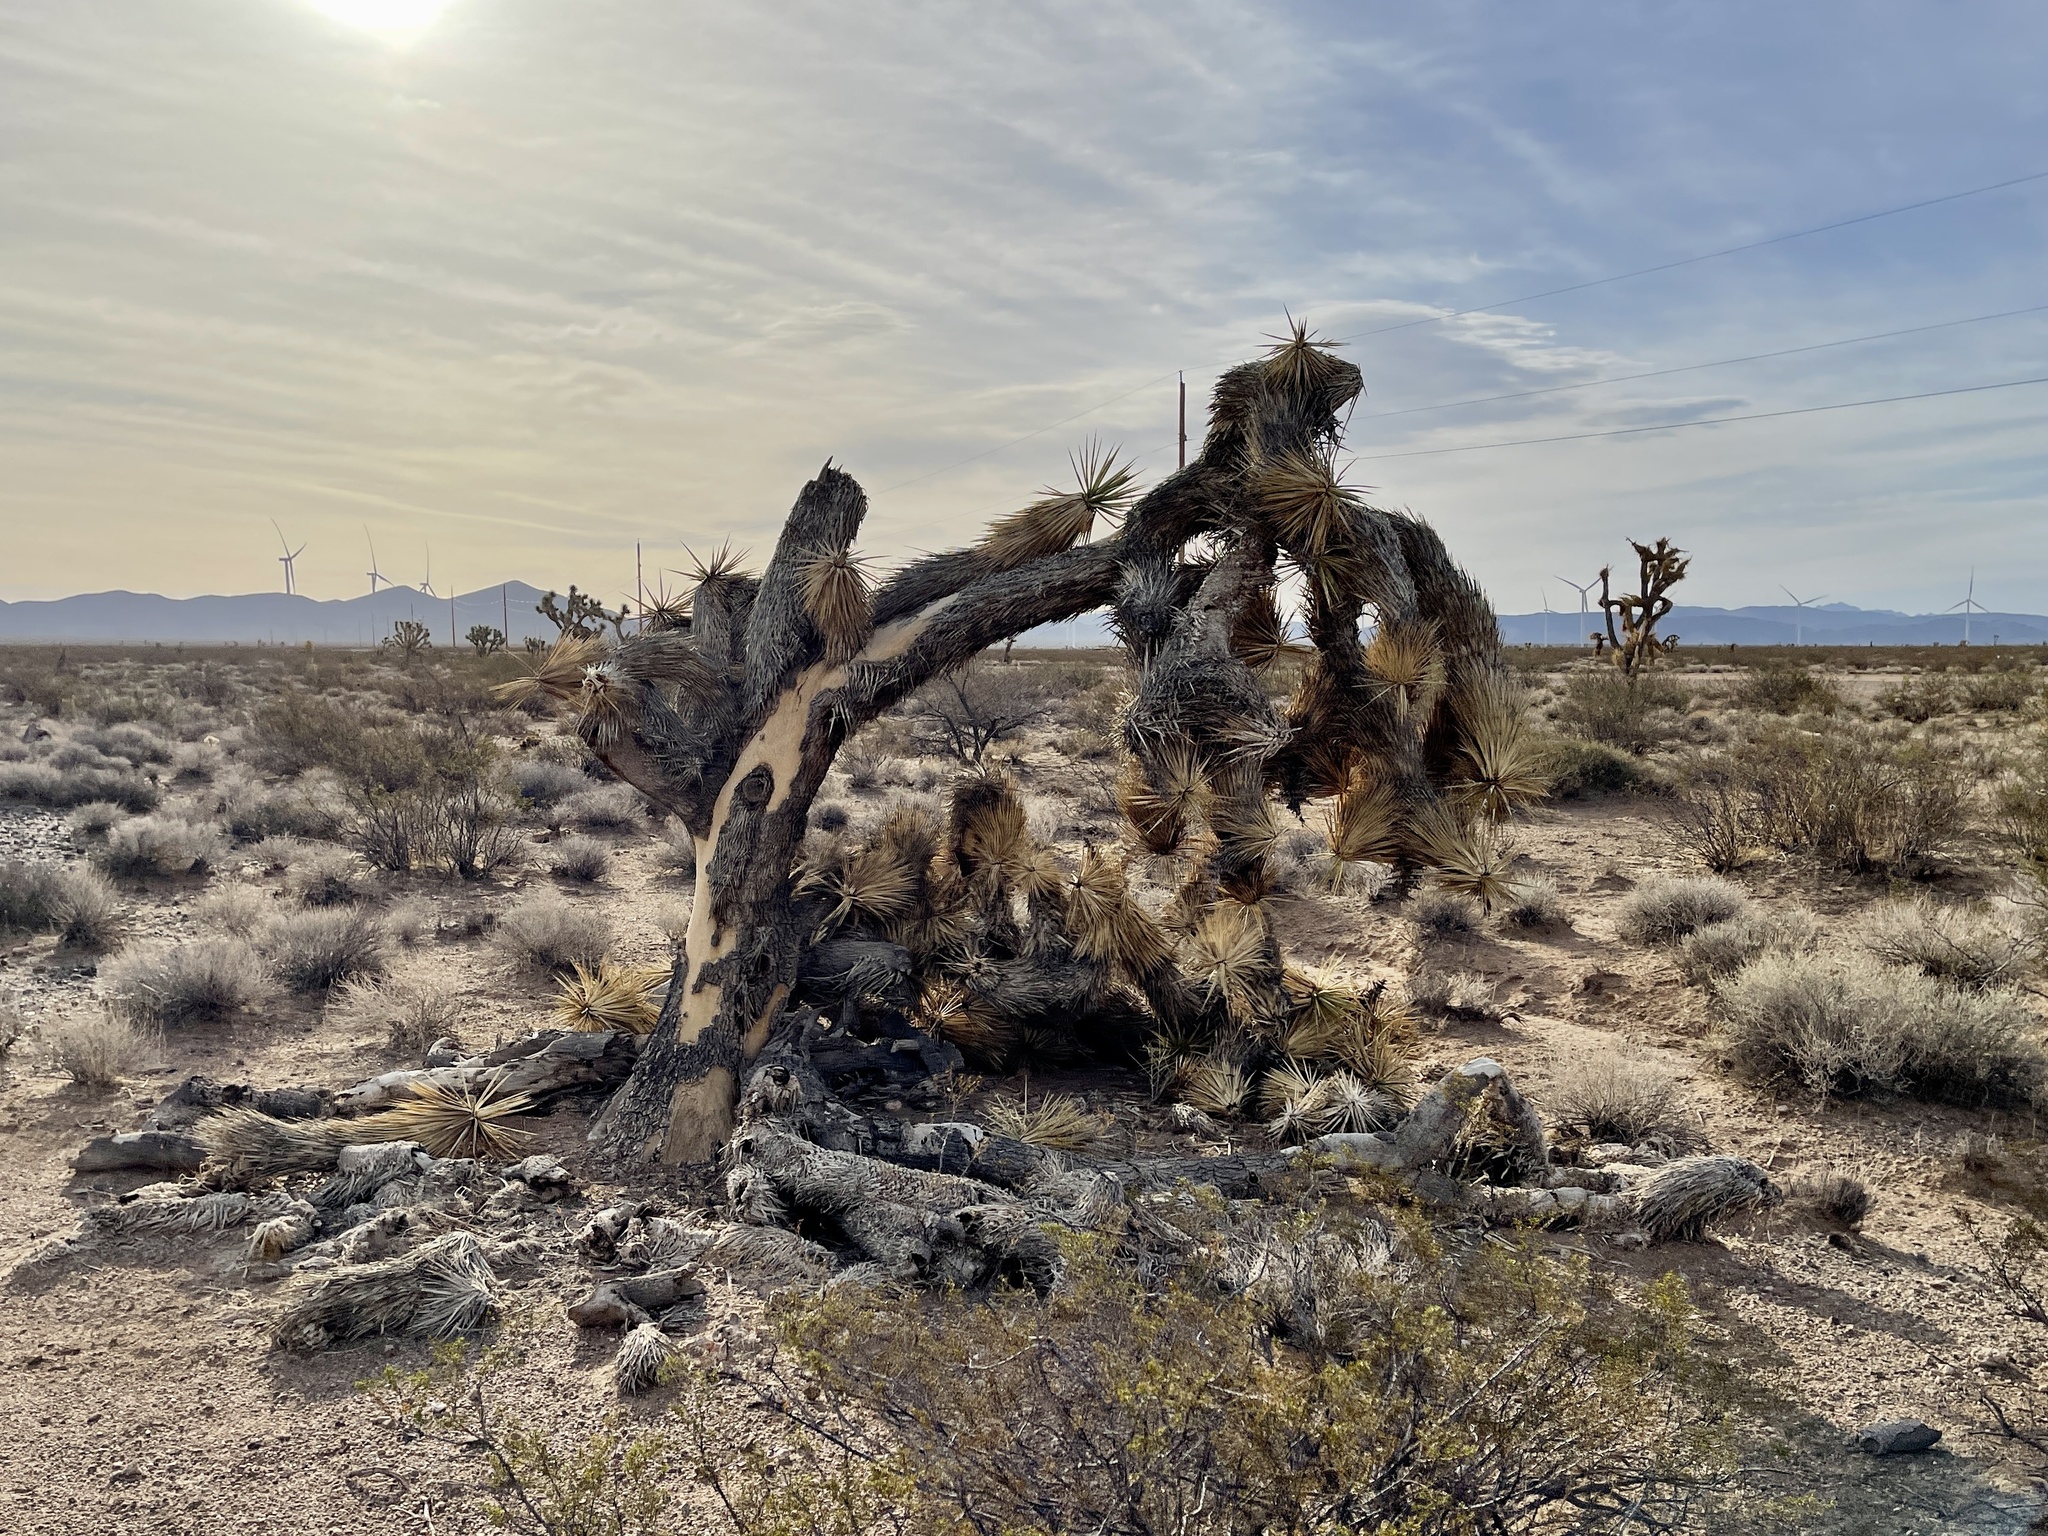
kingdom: Plantae
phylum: Tracheophyta
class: Liliopsida
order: Asparagales
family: Asparagaceae
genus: Yucca
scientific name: Yucca brevifolia
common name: Joshua tree
